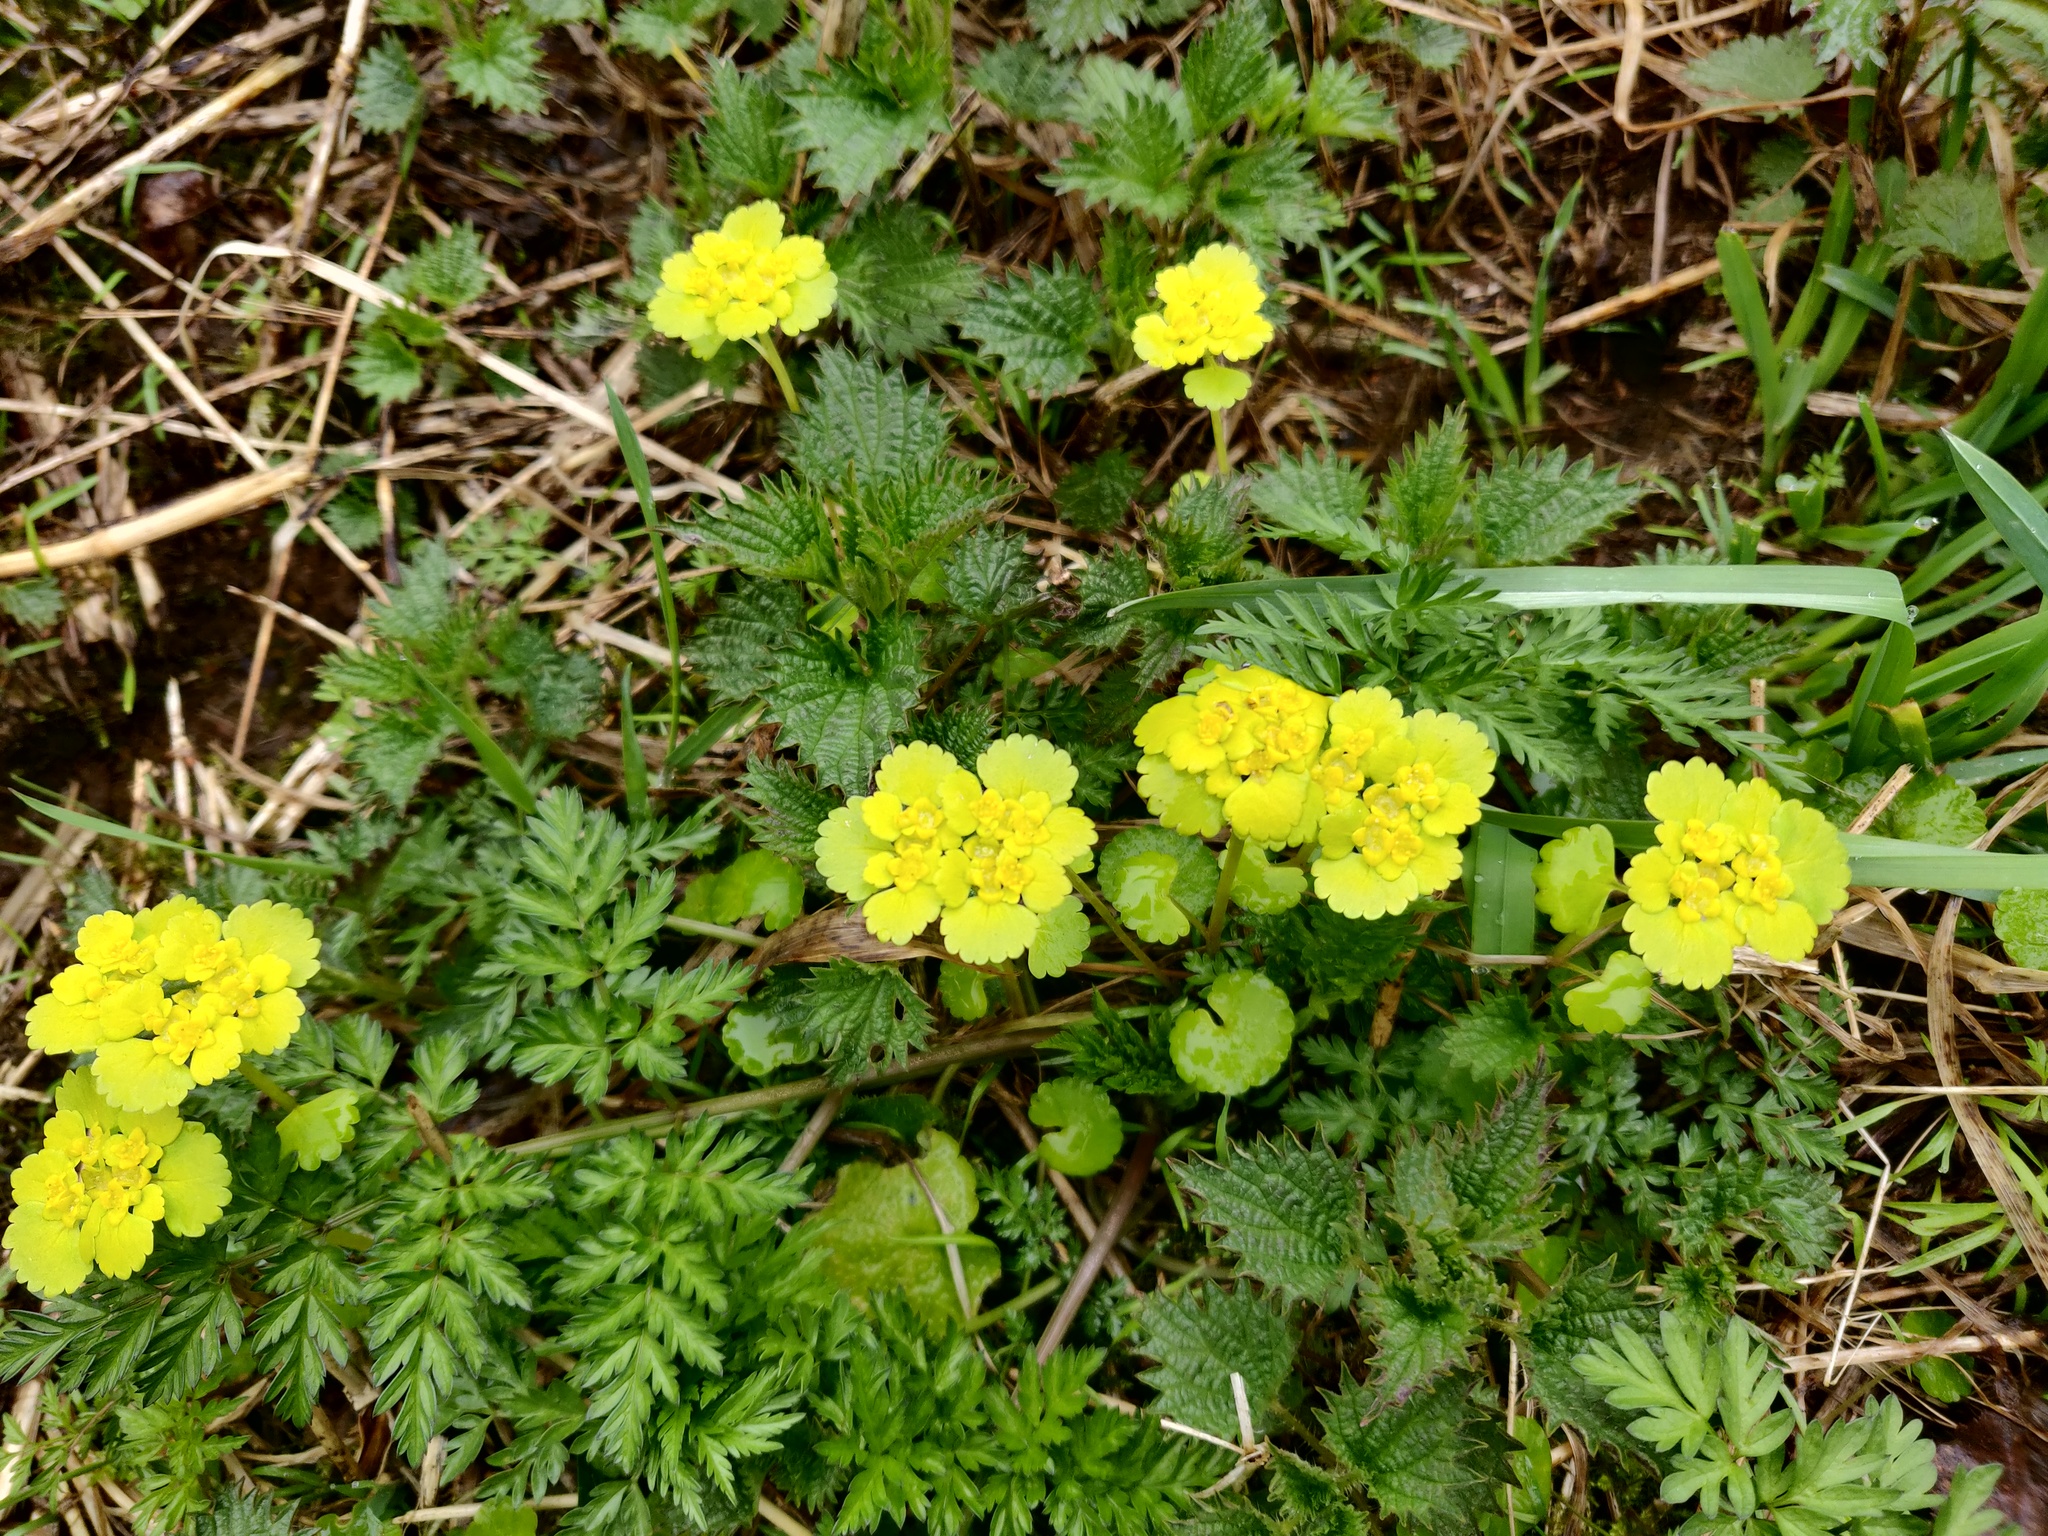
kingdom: Plantae
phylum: Tracheophyta
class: Magnoliopsida
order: Saxifragales
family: Saxifragaceae
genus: Chrysosplenium
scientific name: Chrysosplenium alternifolium
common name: Alternate-leaved golden-saxifrage
